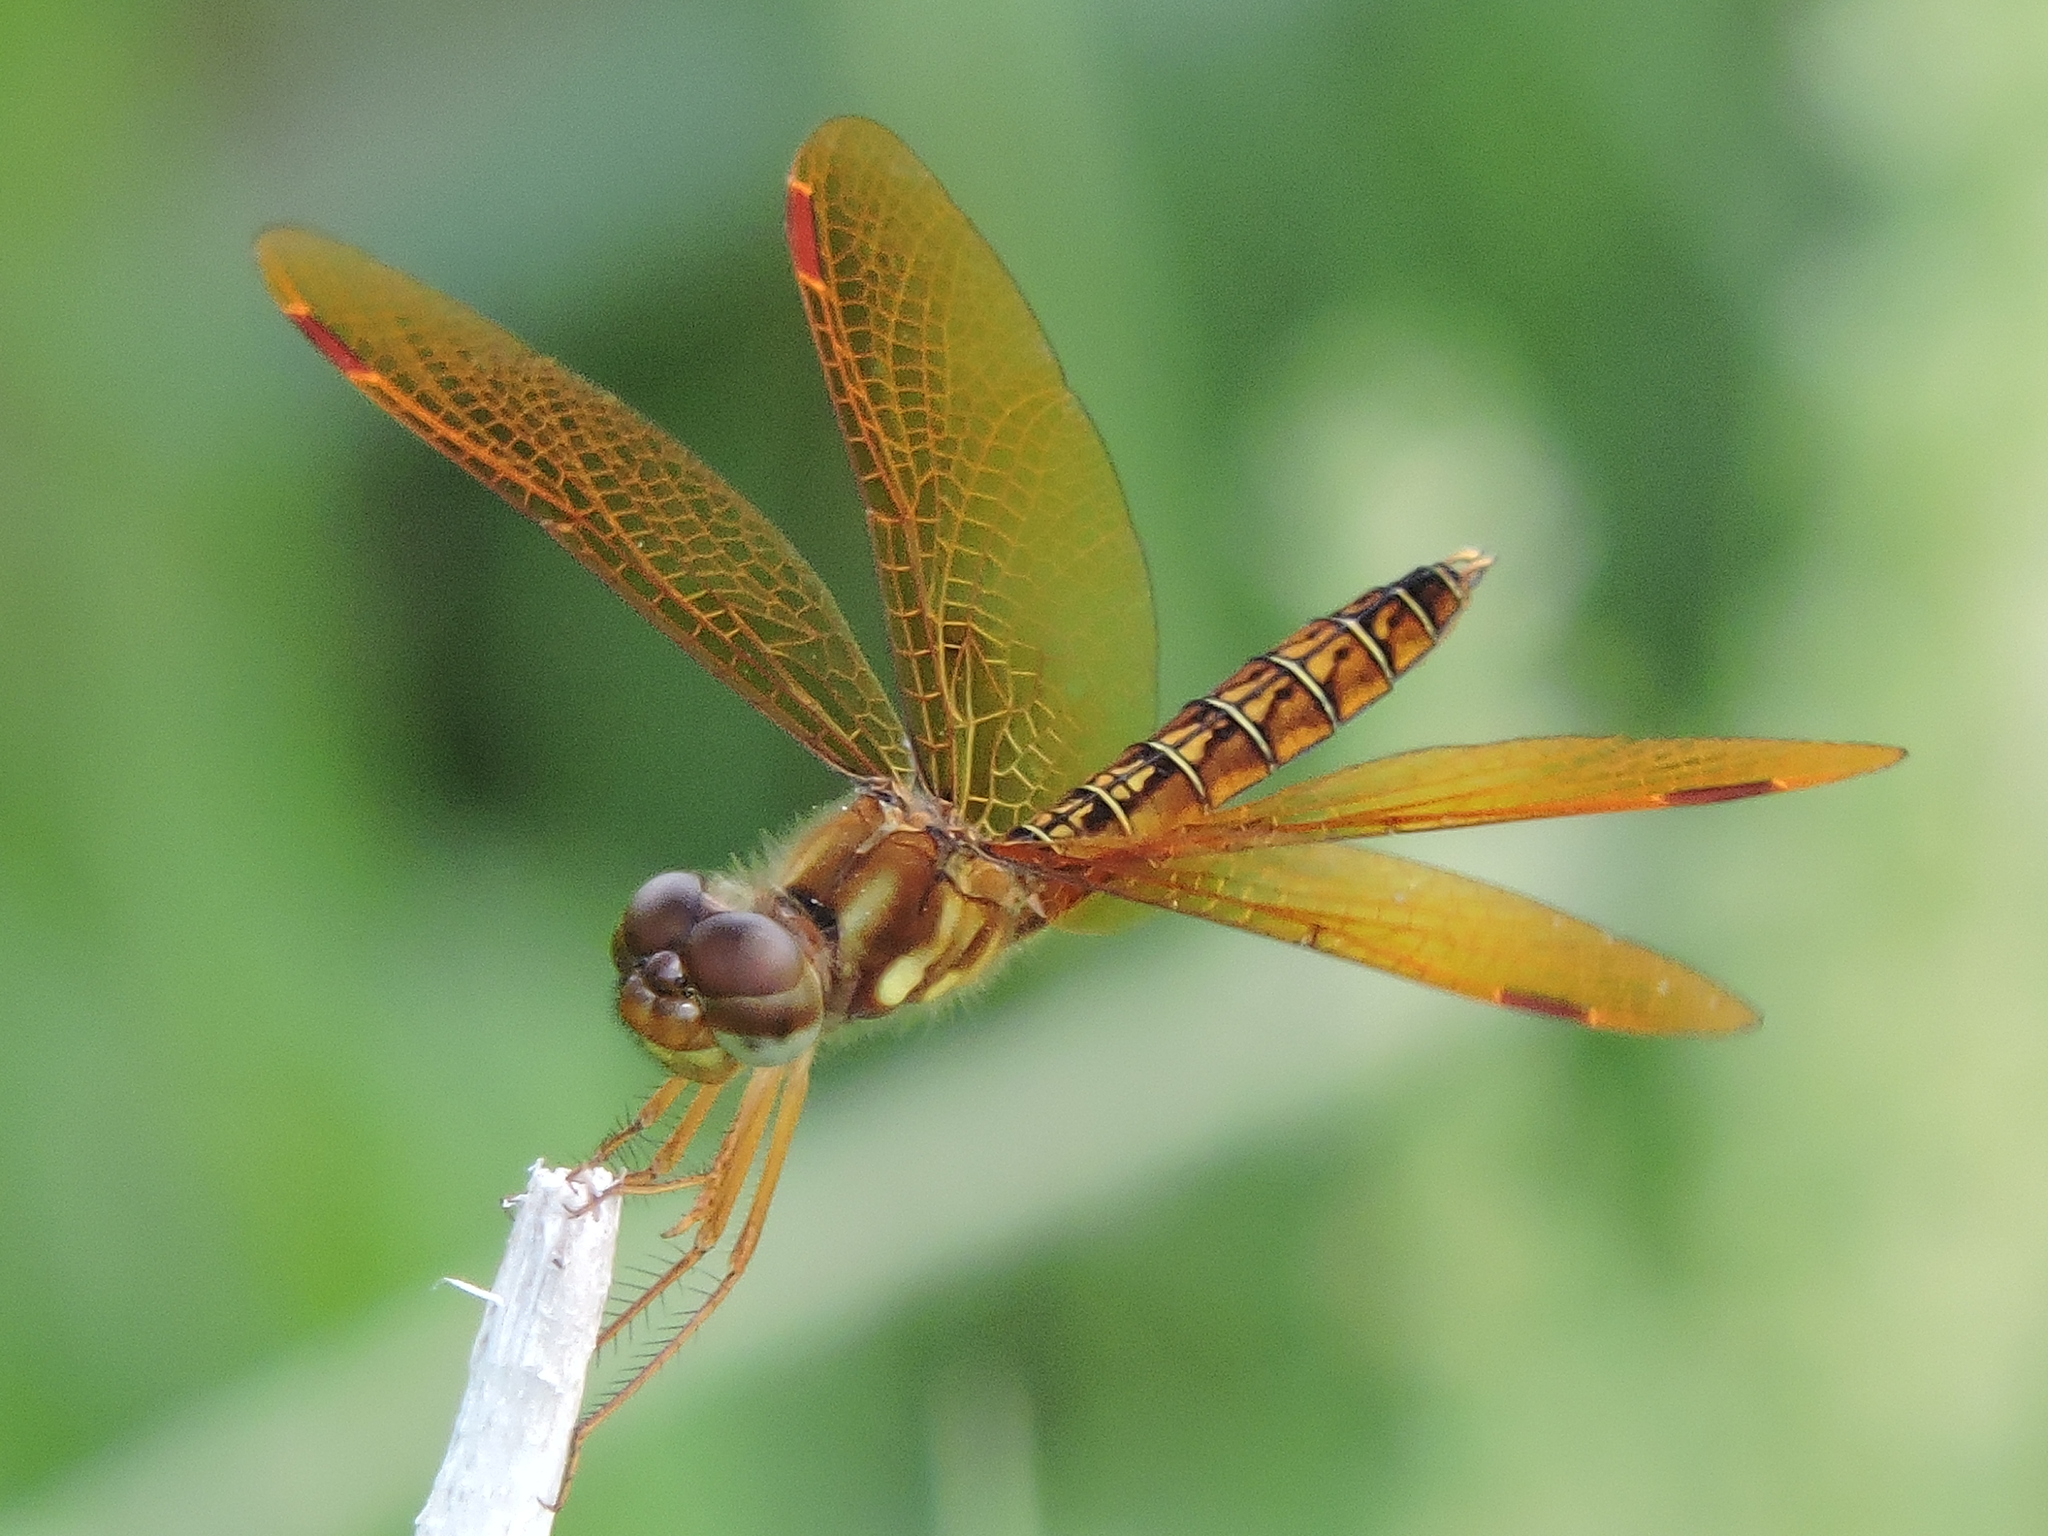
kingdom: Animalia
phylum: Arthropoda
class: Insecta
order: Odonata
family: Libellulidae
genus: Perithemis
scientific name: Perithemis tenera
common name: Eastern amberwing
